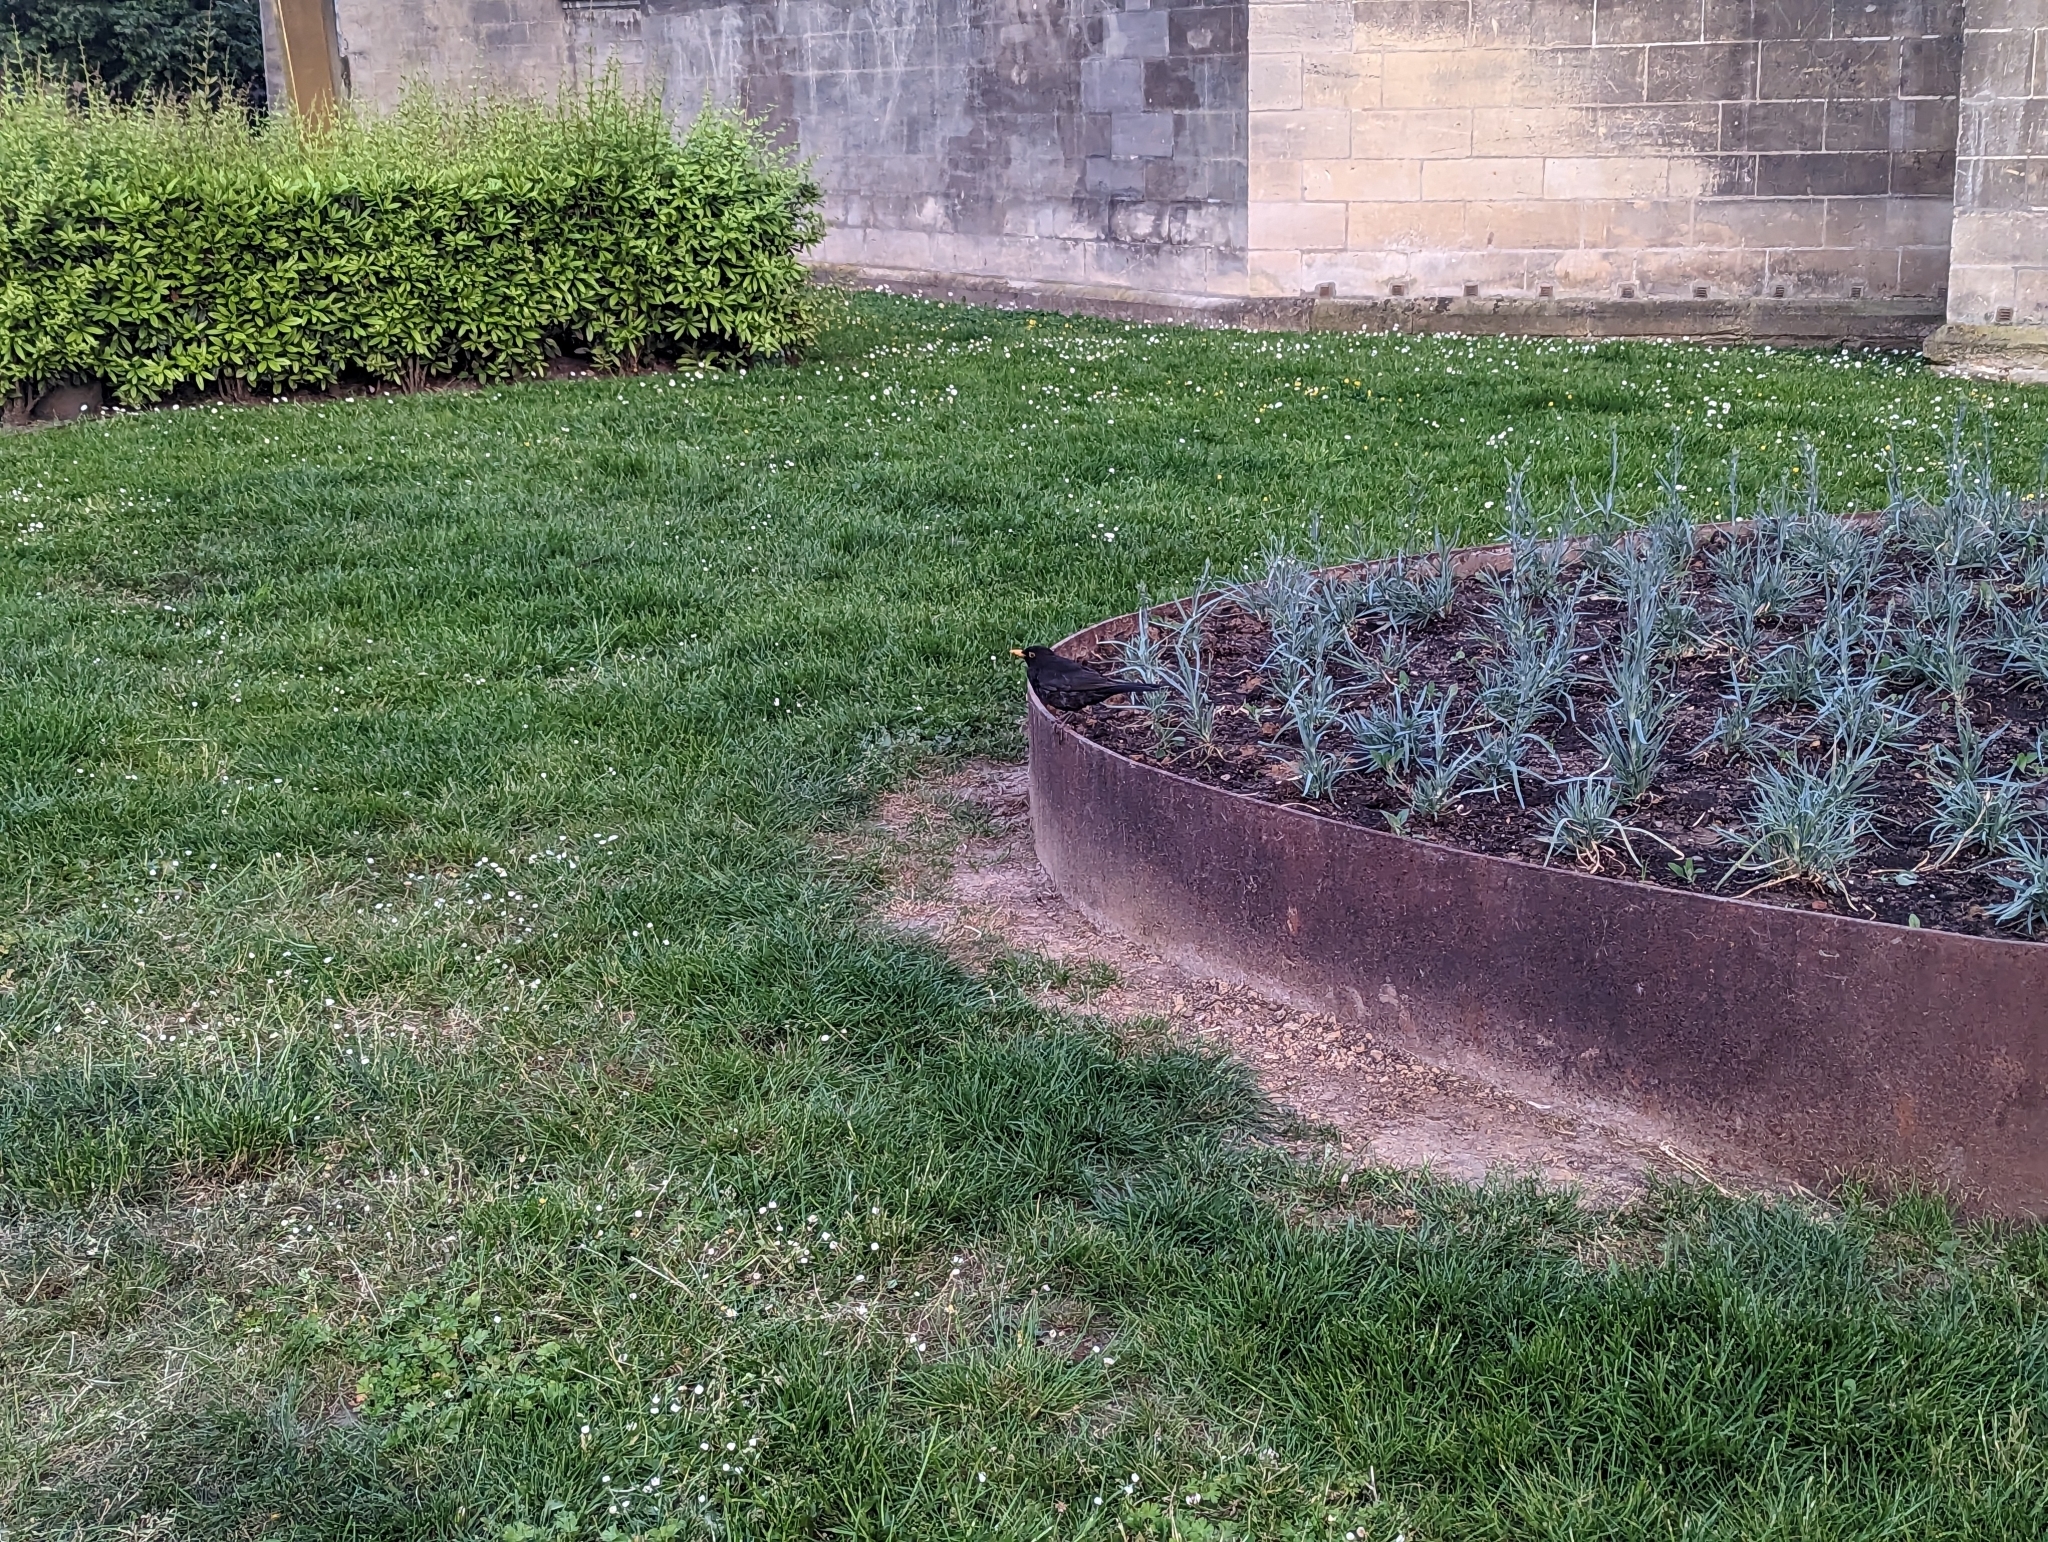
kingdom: Animalia
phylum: Chordata
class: Aves
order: Passeriformes
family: Turdidae
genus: Turdus
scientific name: Turdus merula
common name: Common blackbird
